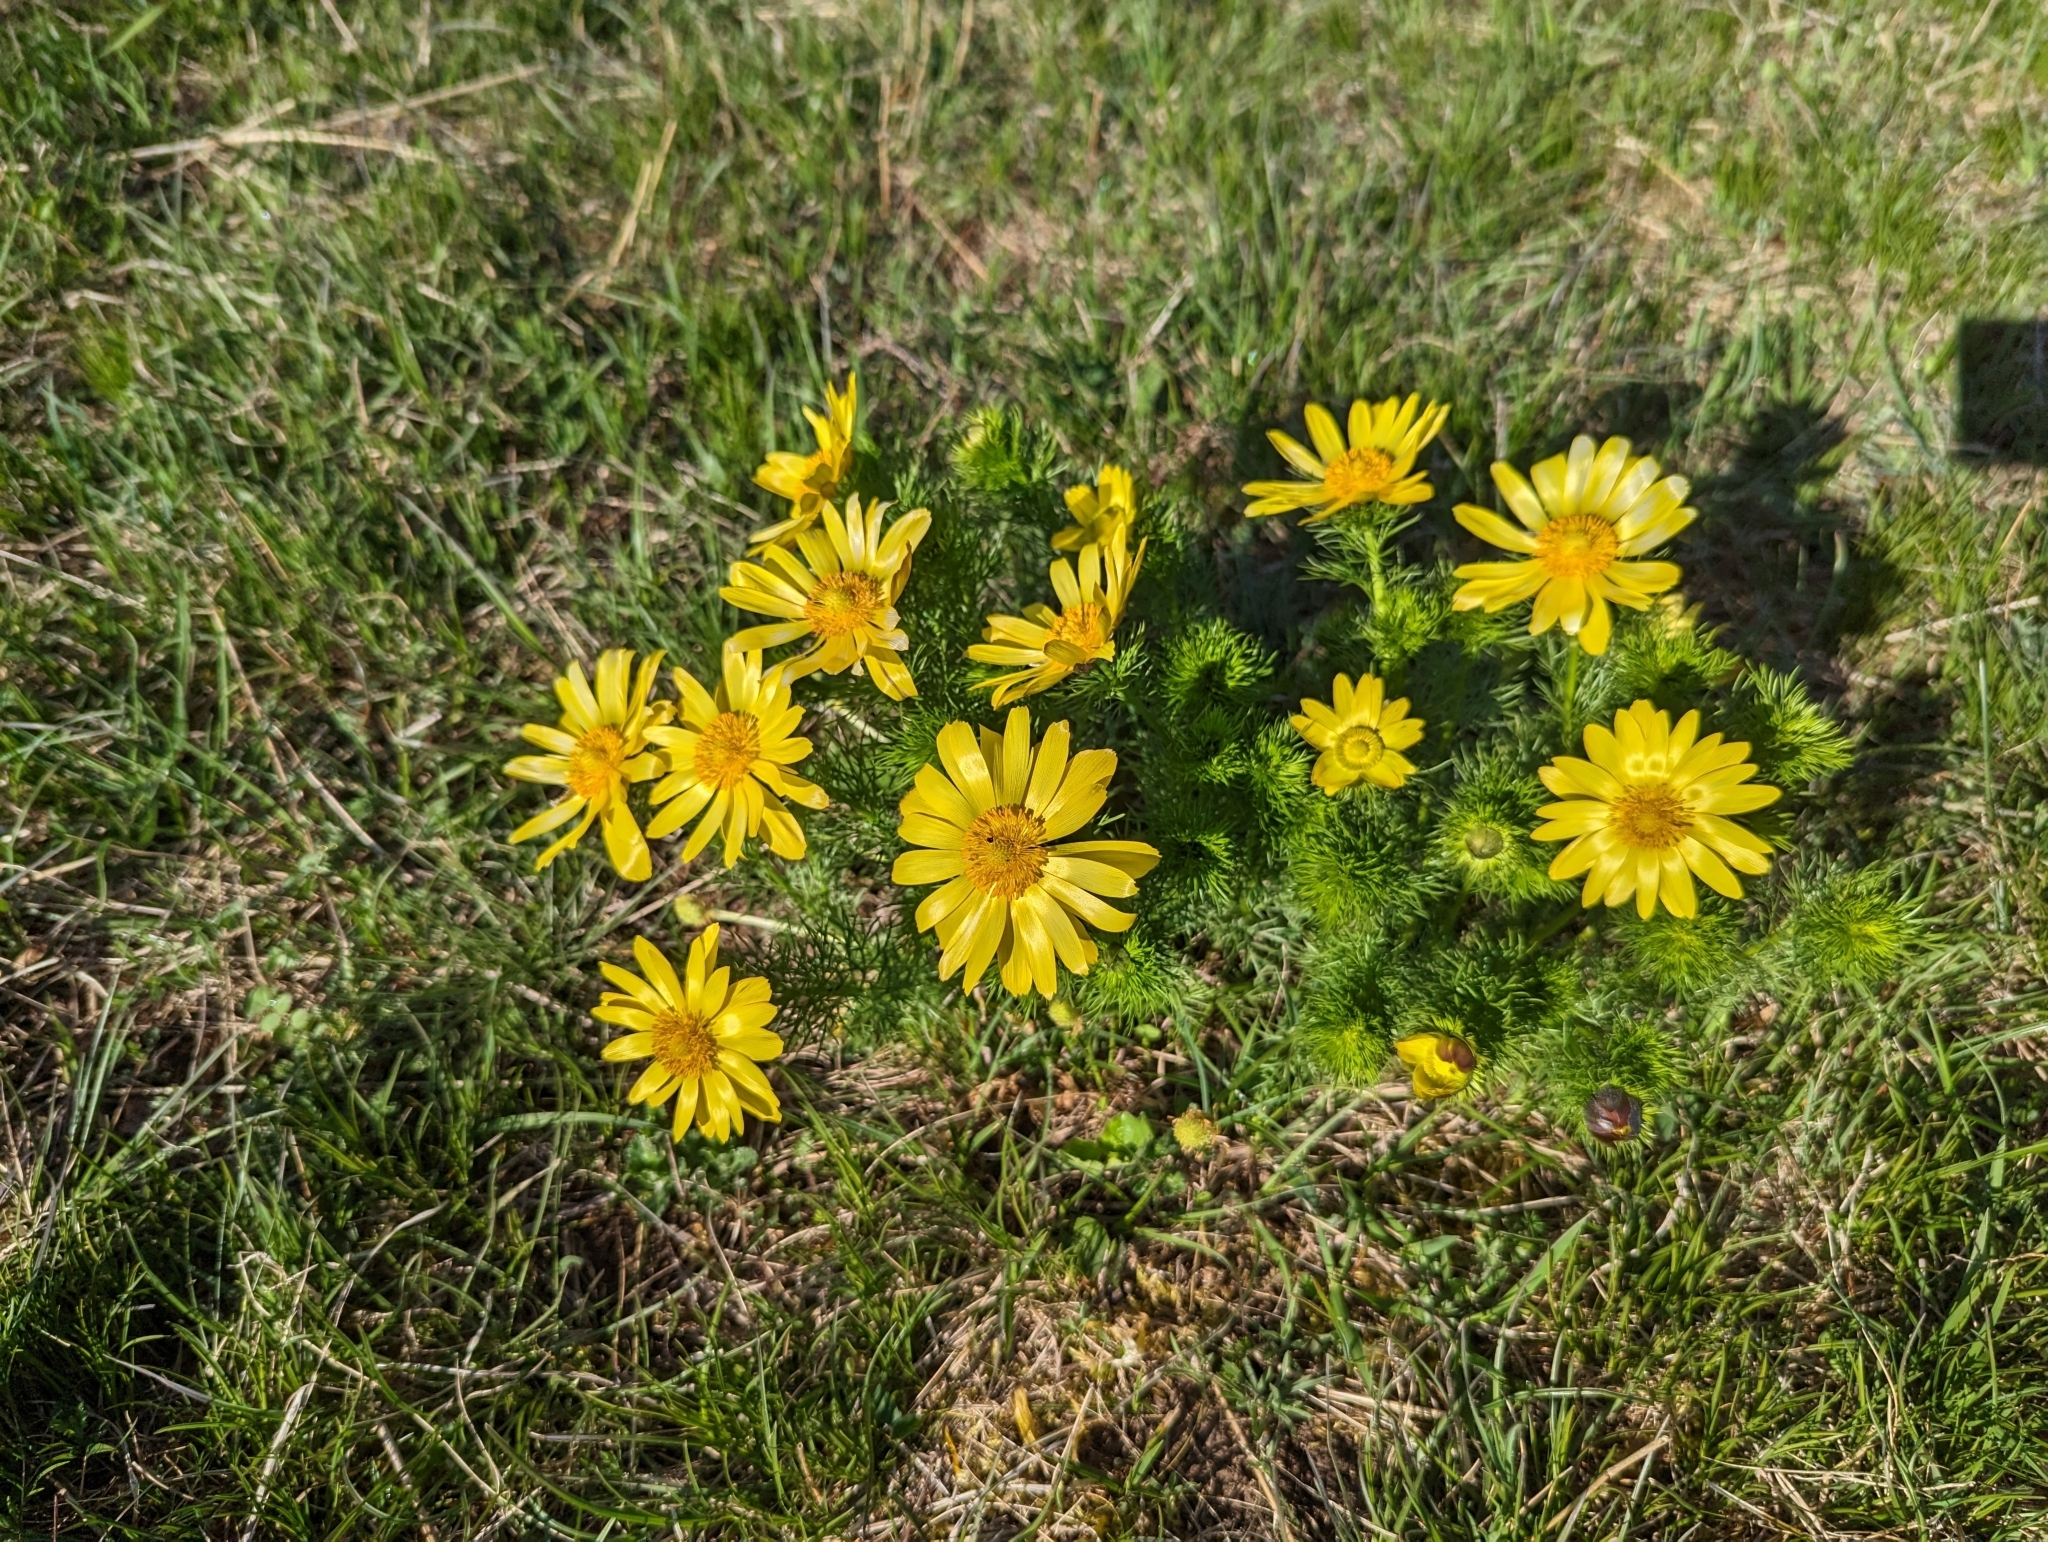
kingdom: Plantae
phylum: Tracheophyta
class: Magnoliopsida
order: Ranunculales
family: Ranunculaceae
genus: Adonis
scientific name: Adonis vernalis
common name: Yellow pheasants-eye
